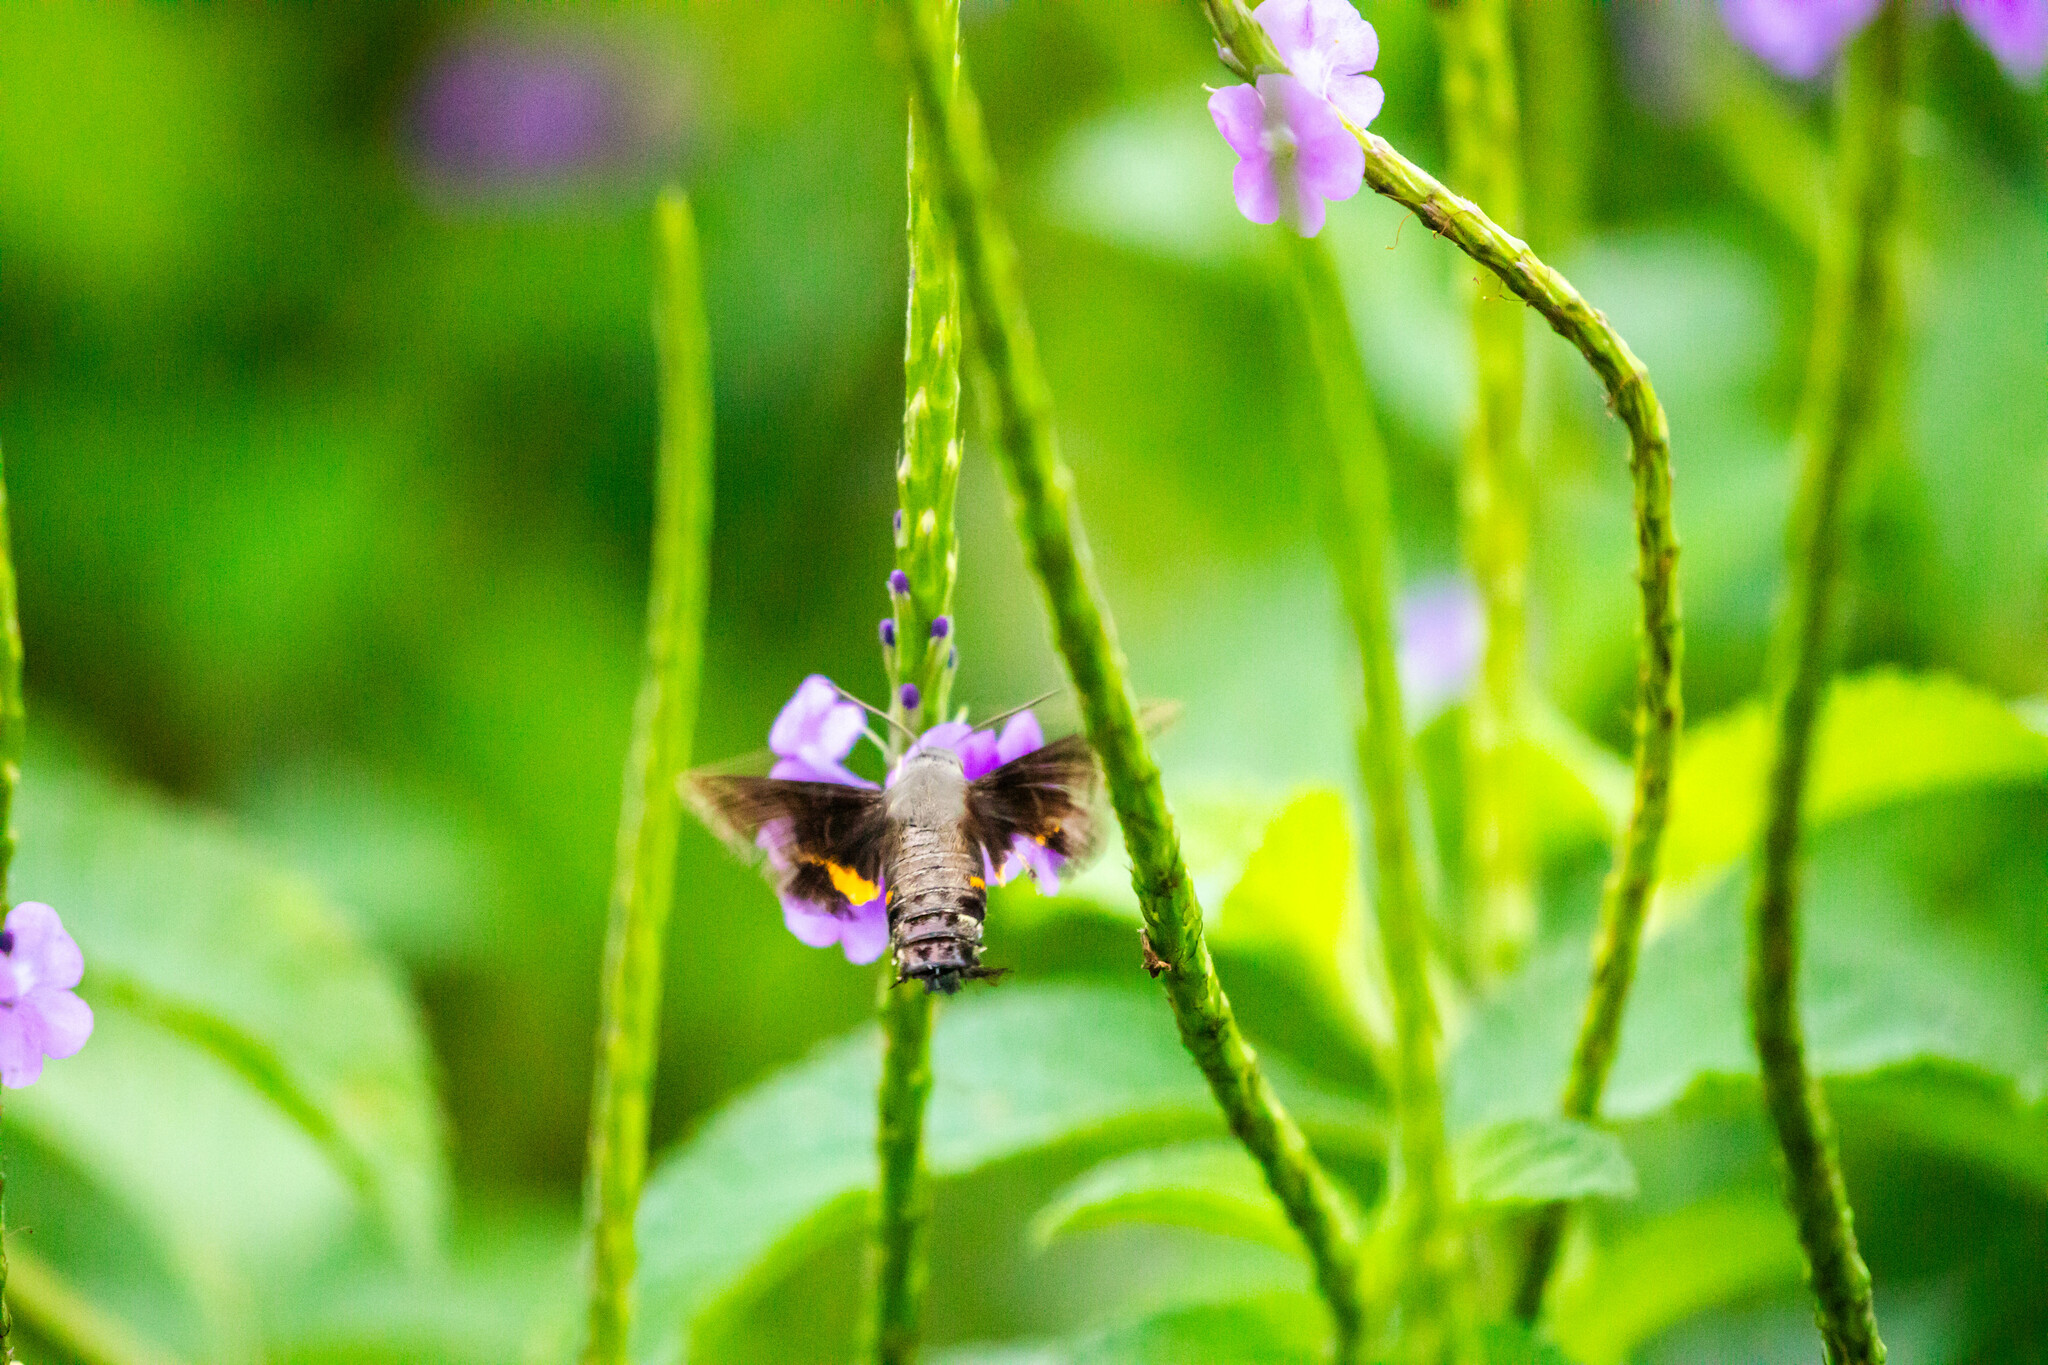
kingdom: Animalia
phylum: Arthropoda
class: Insecta
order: Lepidoptera
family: Sphingidae
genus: Aellopos
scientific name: Aellopos ceculus
